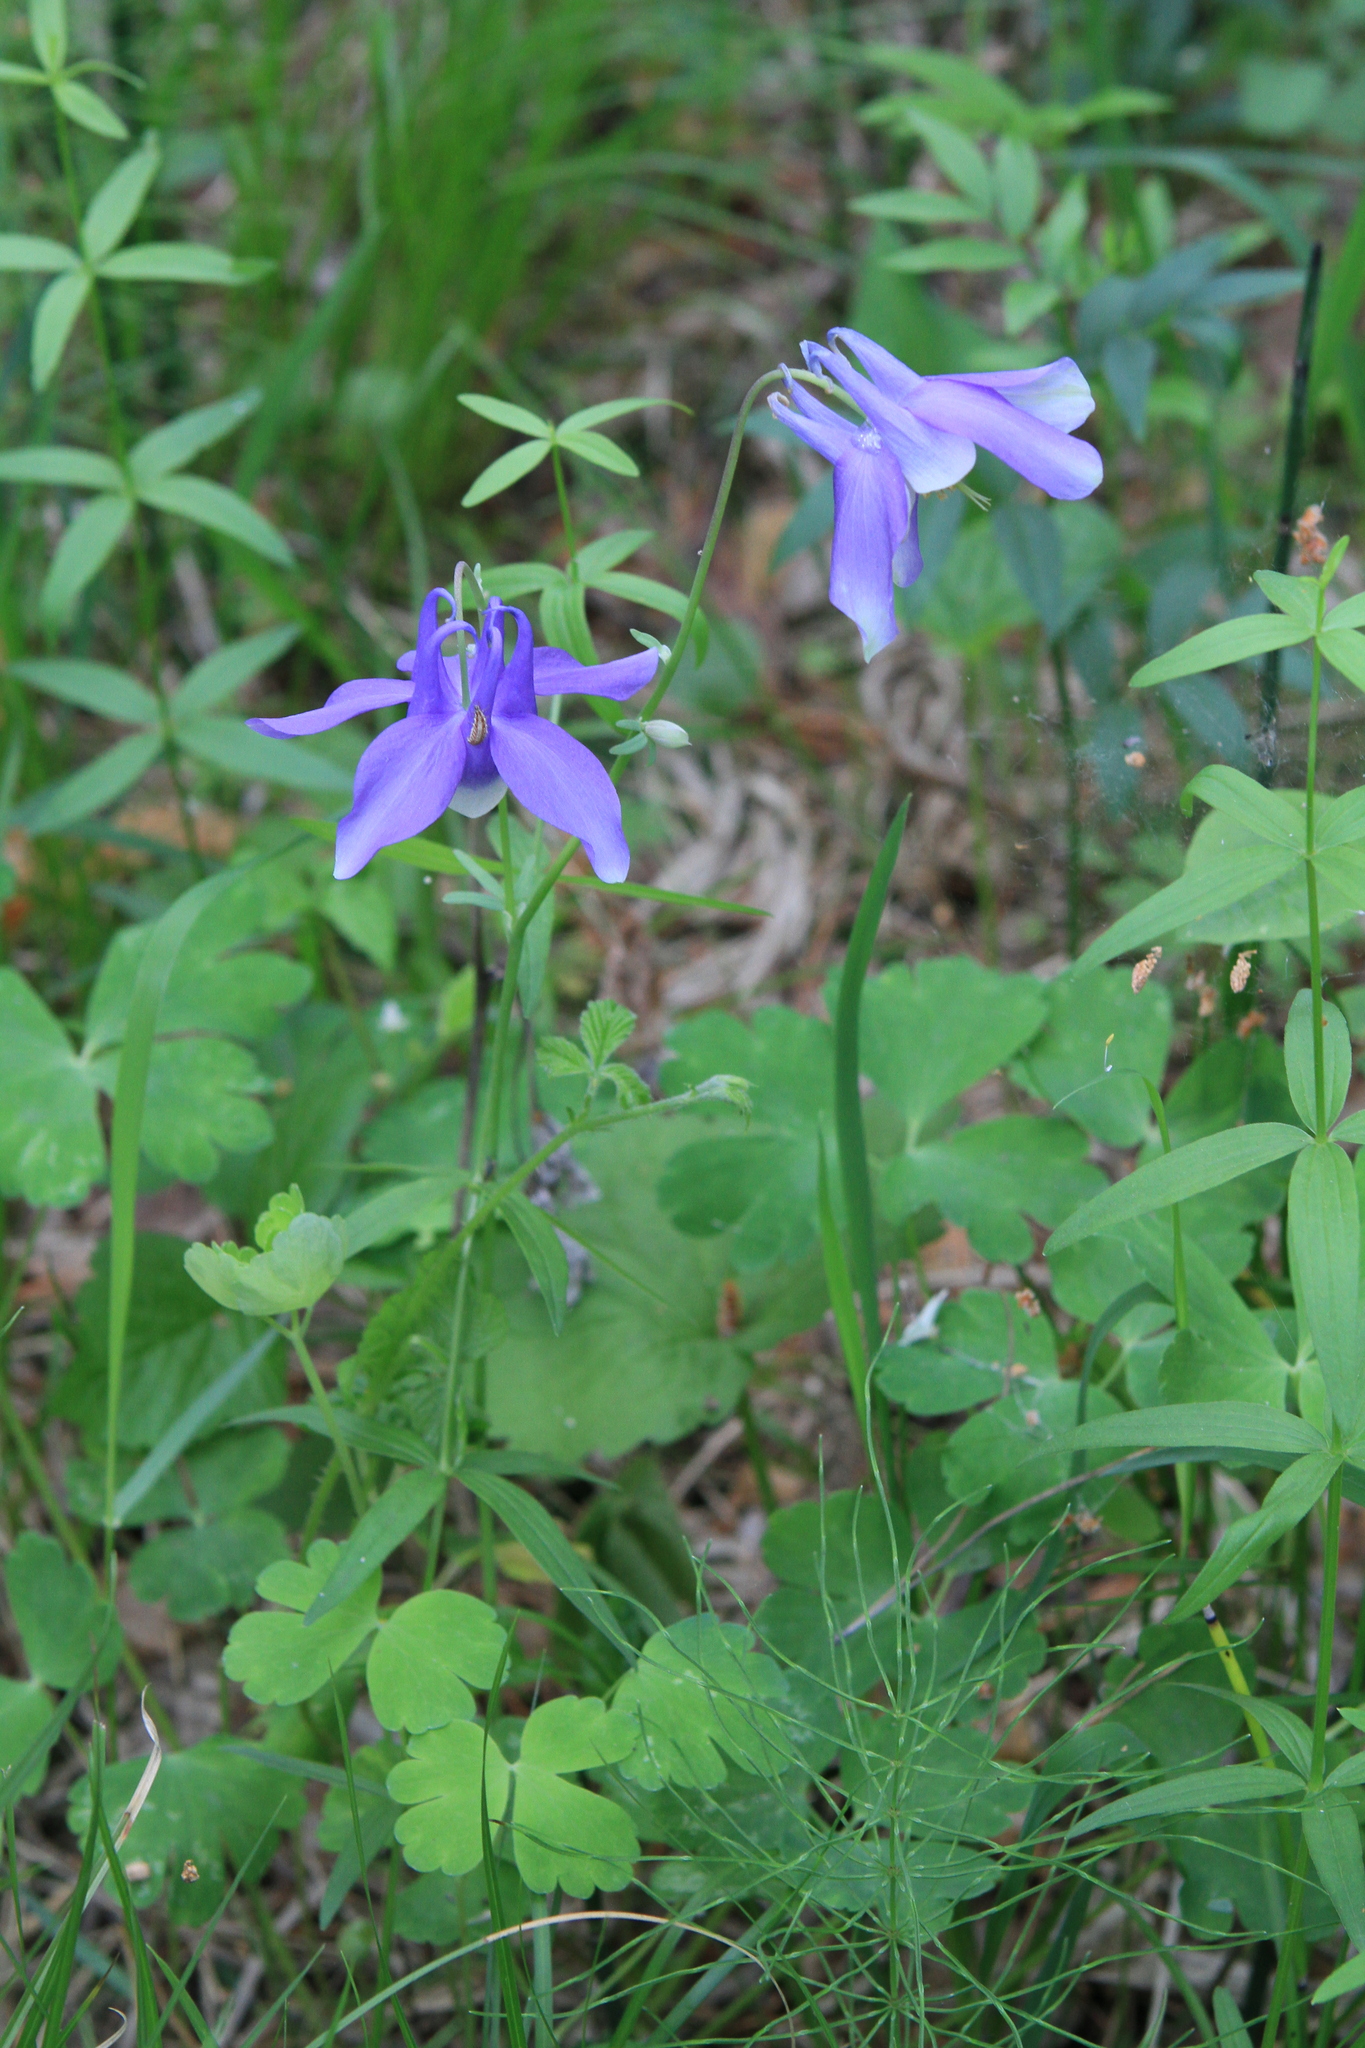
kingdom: Plantae
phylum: Tracheophyta
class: Magnoliopsida
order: Ranunculales
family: Ranunculaceae
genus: Aquilegia
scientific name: Aquilegia sibirica
